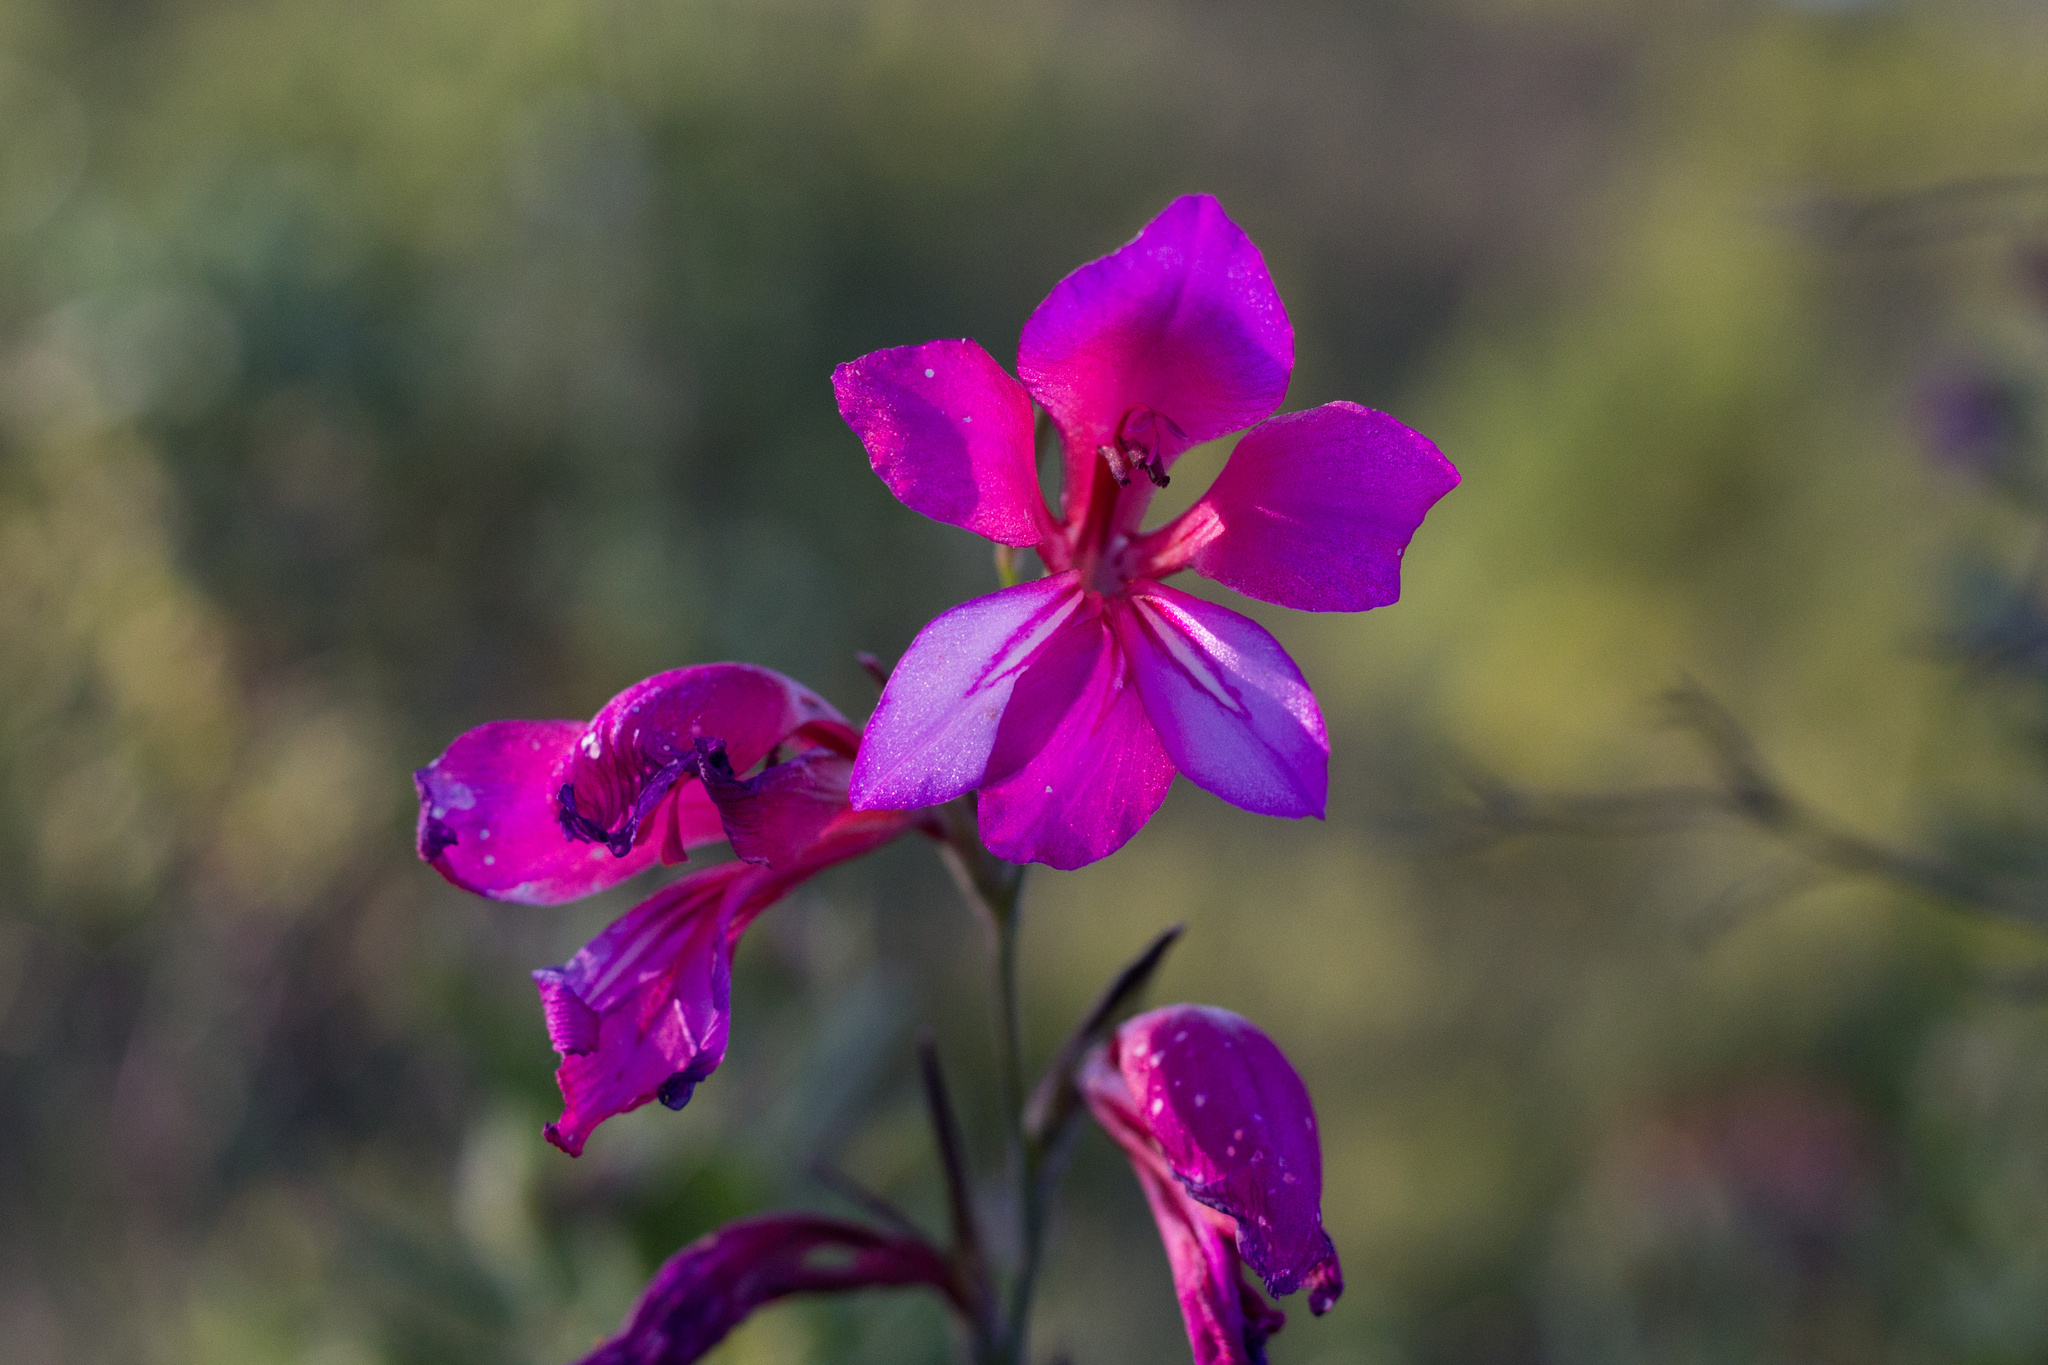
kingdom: Plantae
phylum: Tracheophyta
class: Liliopsida
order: Asparagales
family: Iridaceae
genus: Gladiolus
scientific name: Gladiolus illyricus
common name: Wild gladiolus
